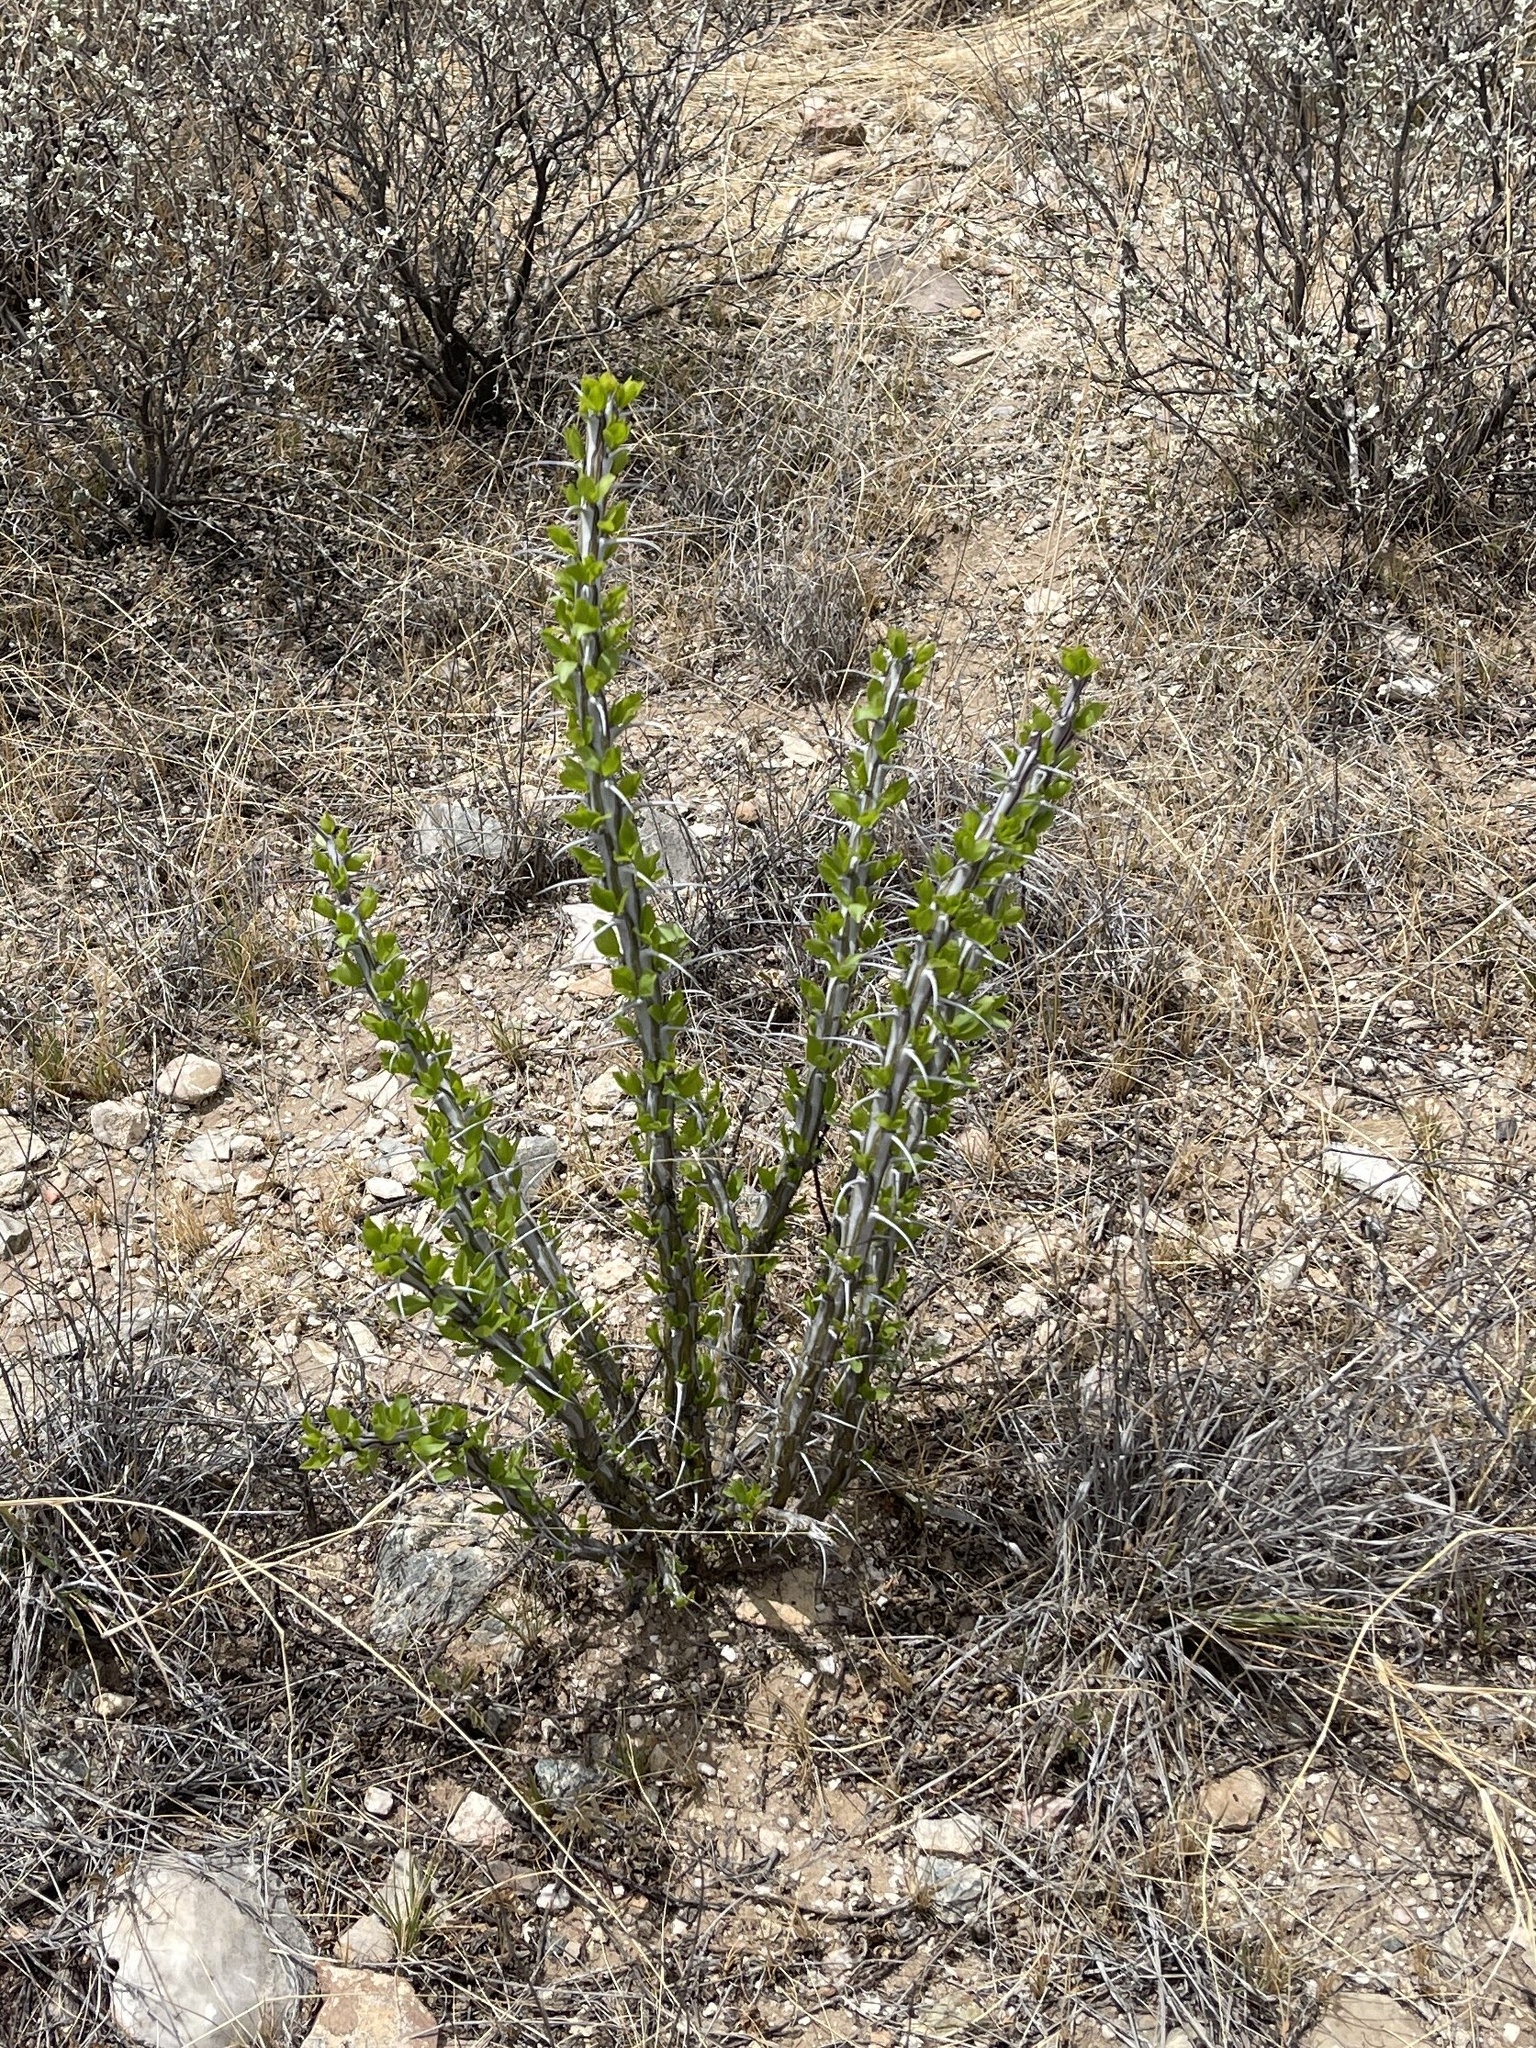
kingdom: Plantae
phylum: Tracheophyta
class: Magnoliopsida
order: Ericales
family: Fouquieriaceae
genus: Fouquieria
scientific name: Fouquieria splendens
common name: Vine-cactus
